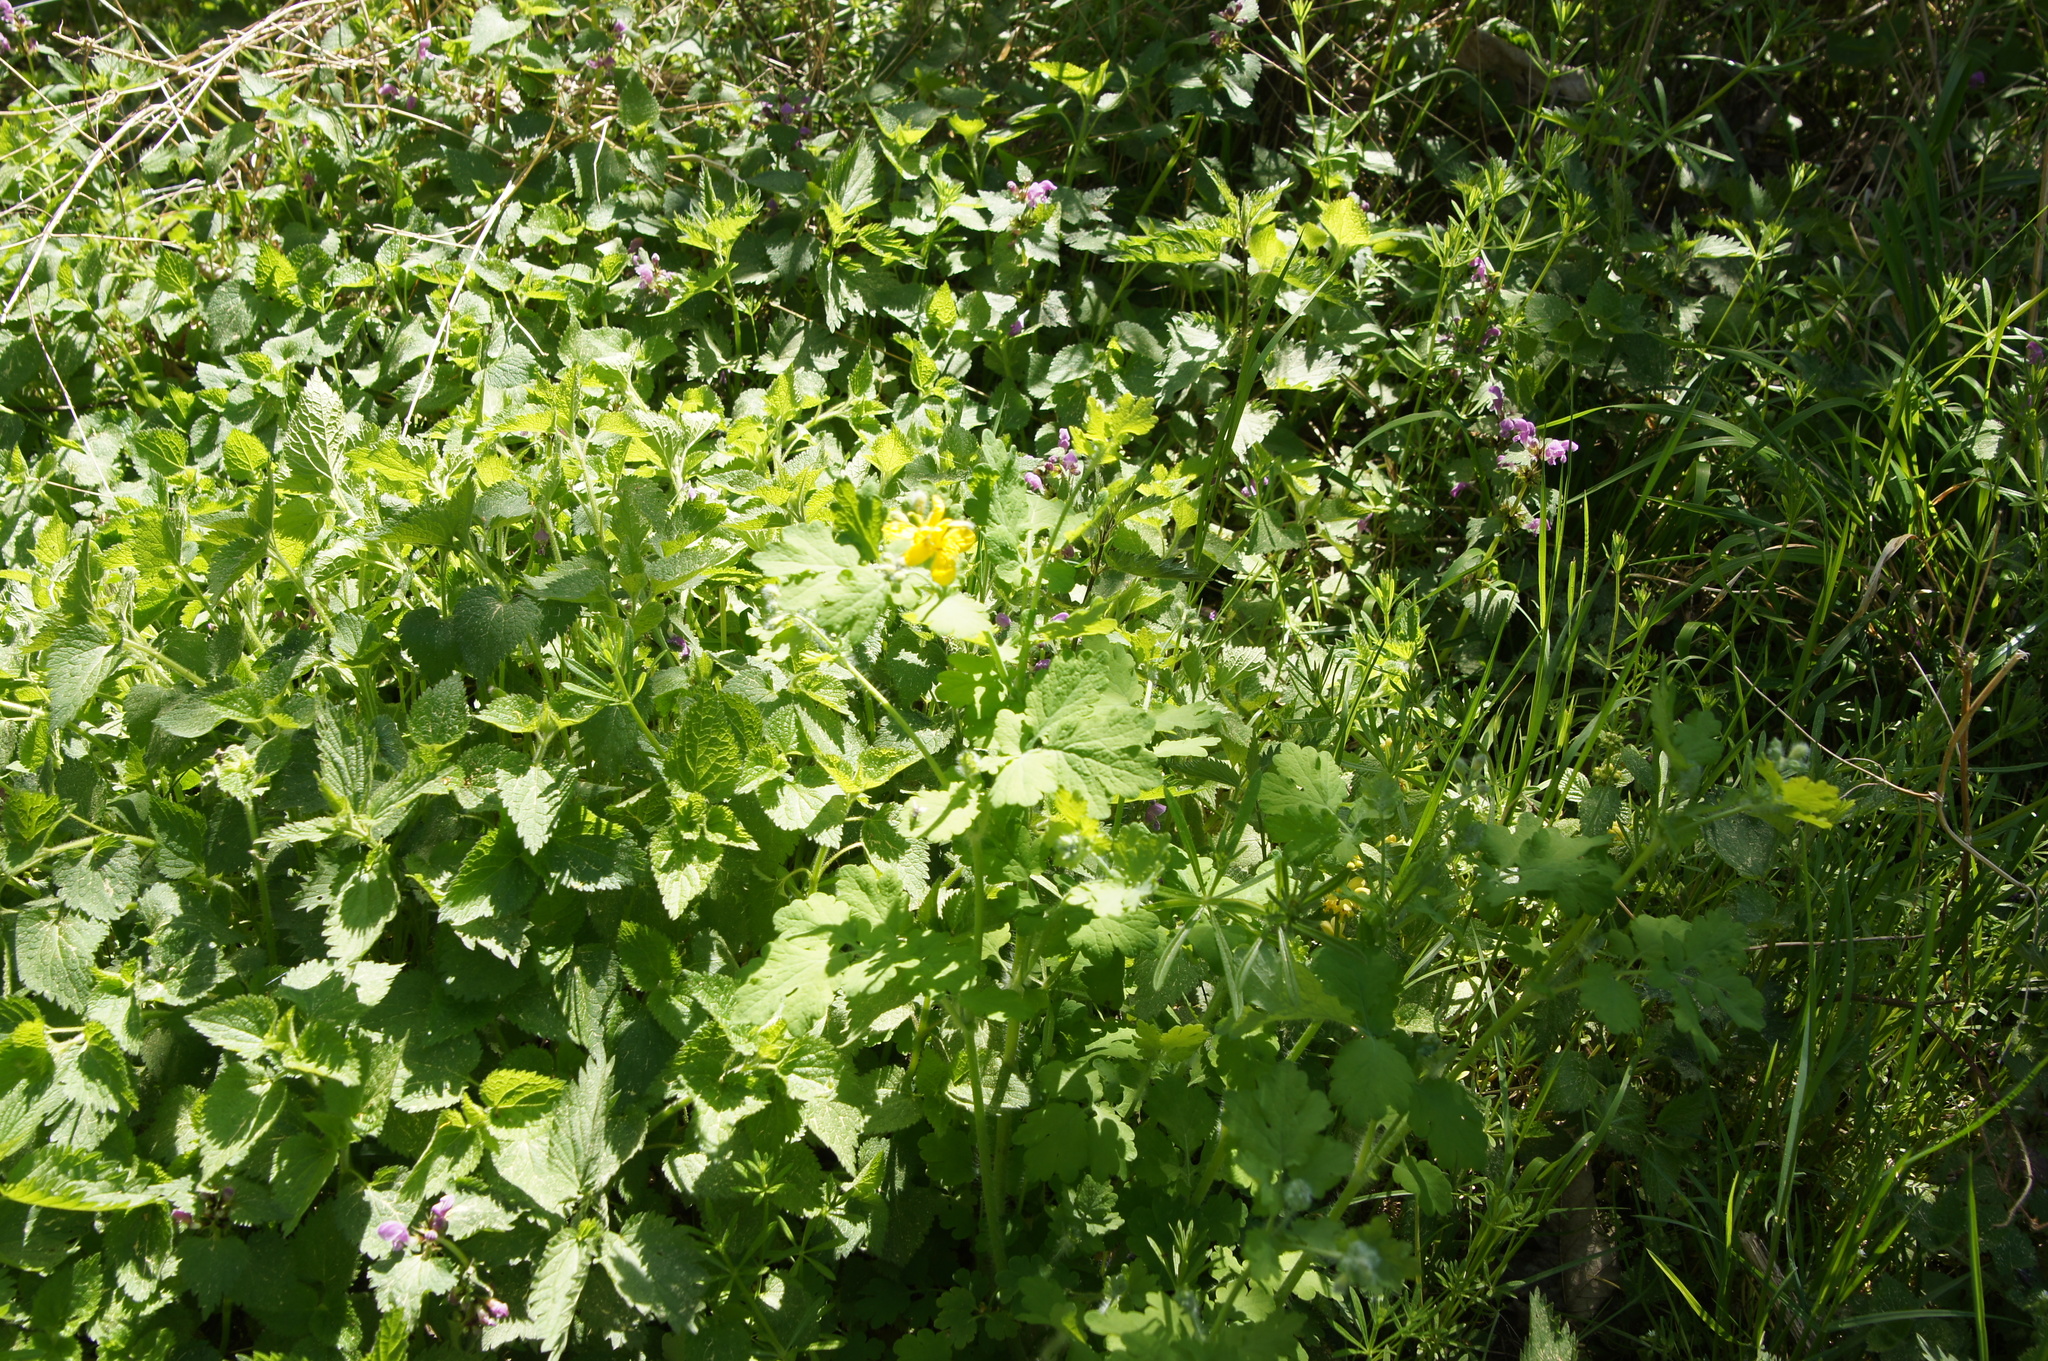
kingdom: Plantae
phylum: Tracheophyta
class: Magnoliopsida
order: Ranunculales
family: Papaveraceae
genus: Chelidonium
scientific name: Chelidonium majus
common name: Greater celandine
